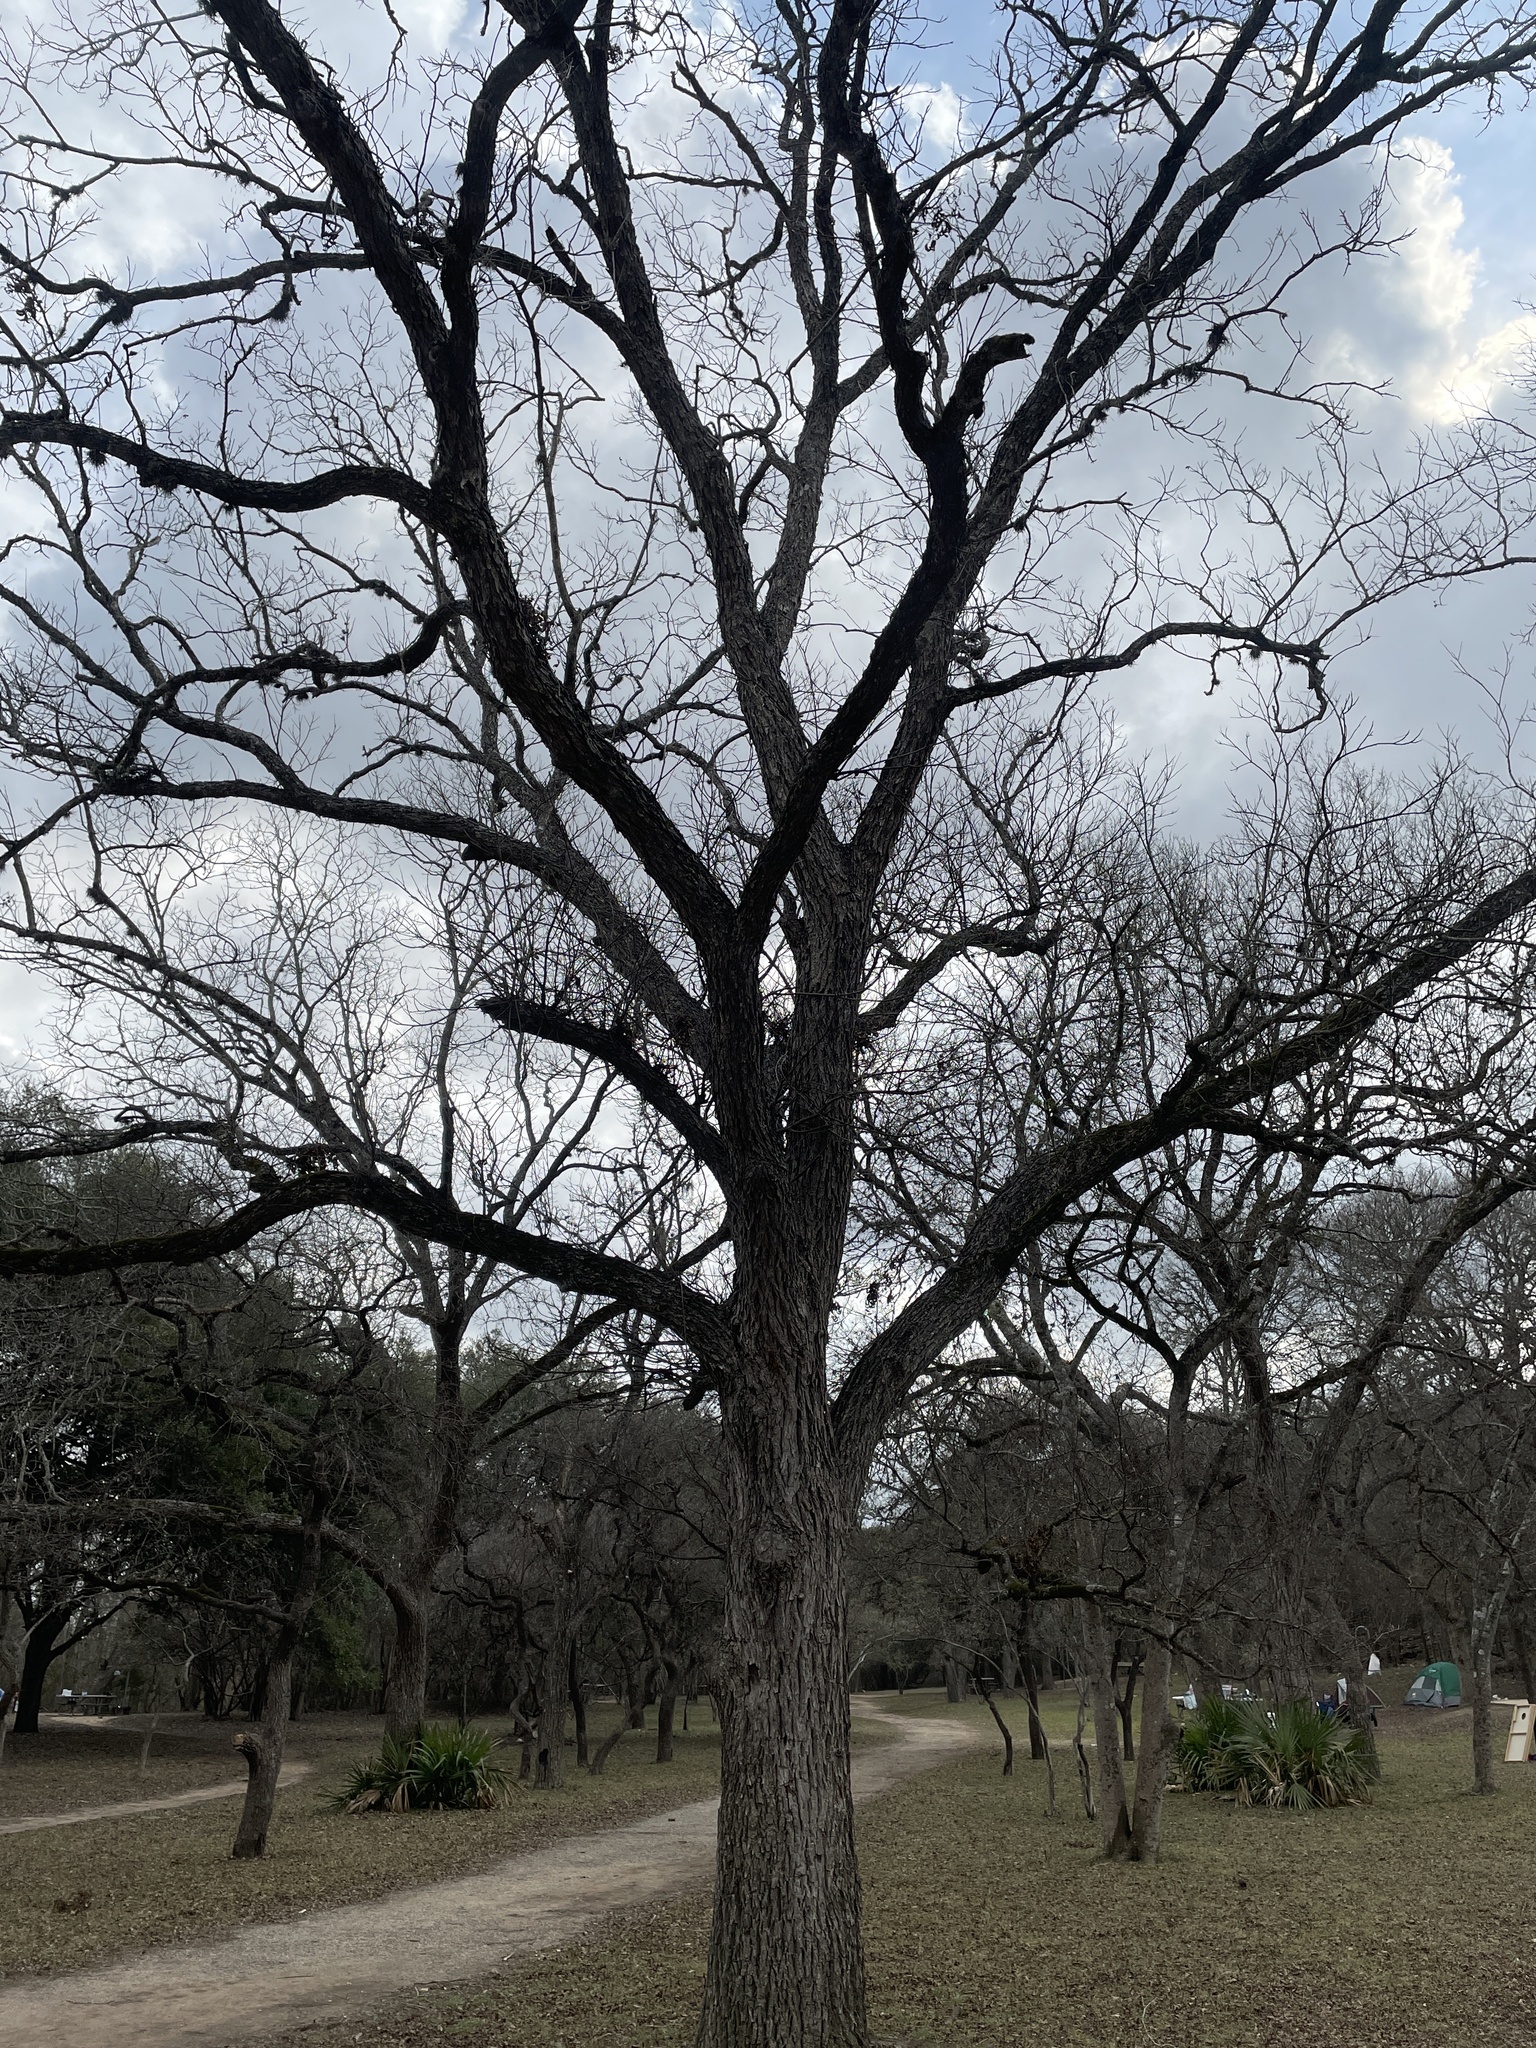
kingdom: Plantae
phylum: Tracheophyta
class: Magnoliopsida
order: Fagales
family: Juglandaceae
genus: Carya
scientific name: Carya illinoinensis
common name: Pecan
